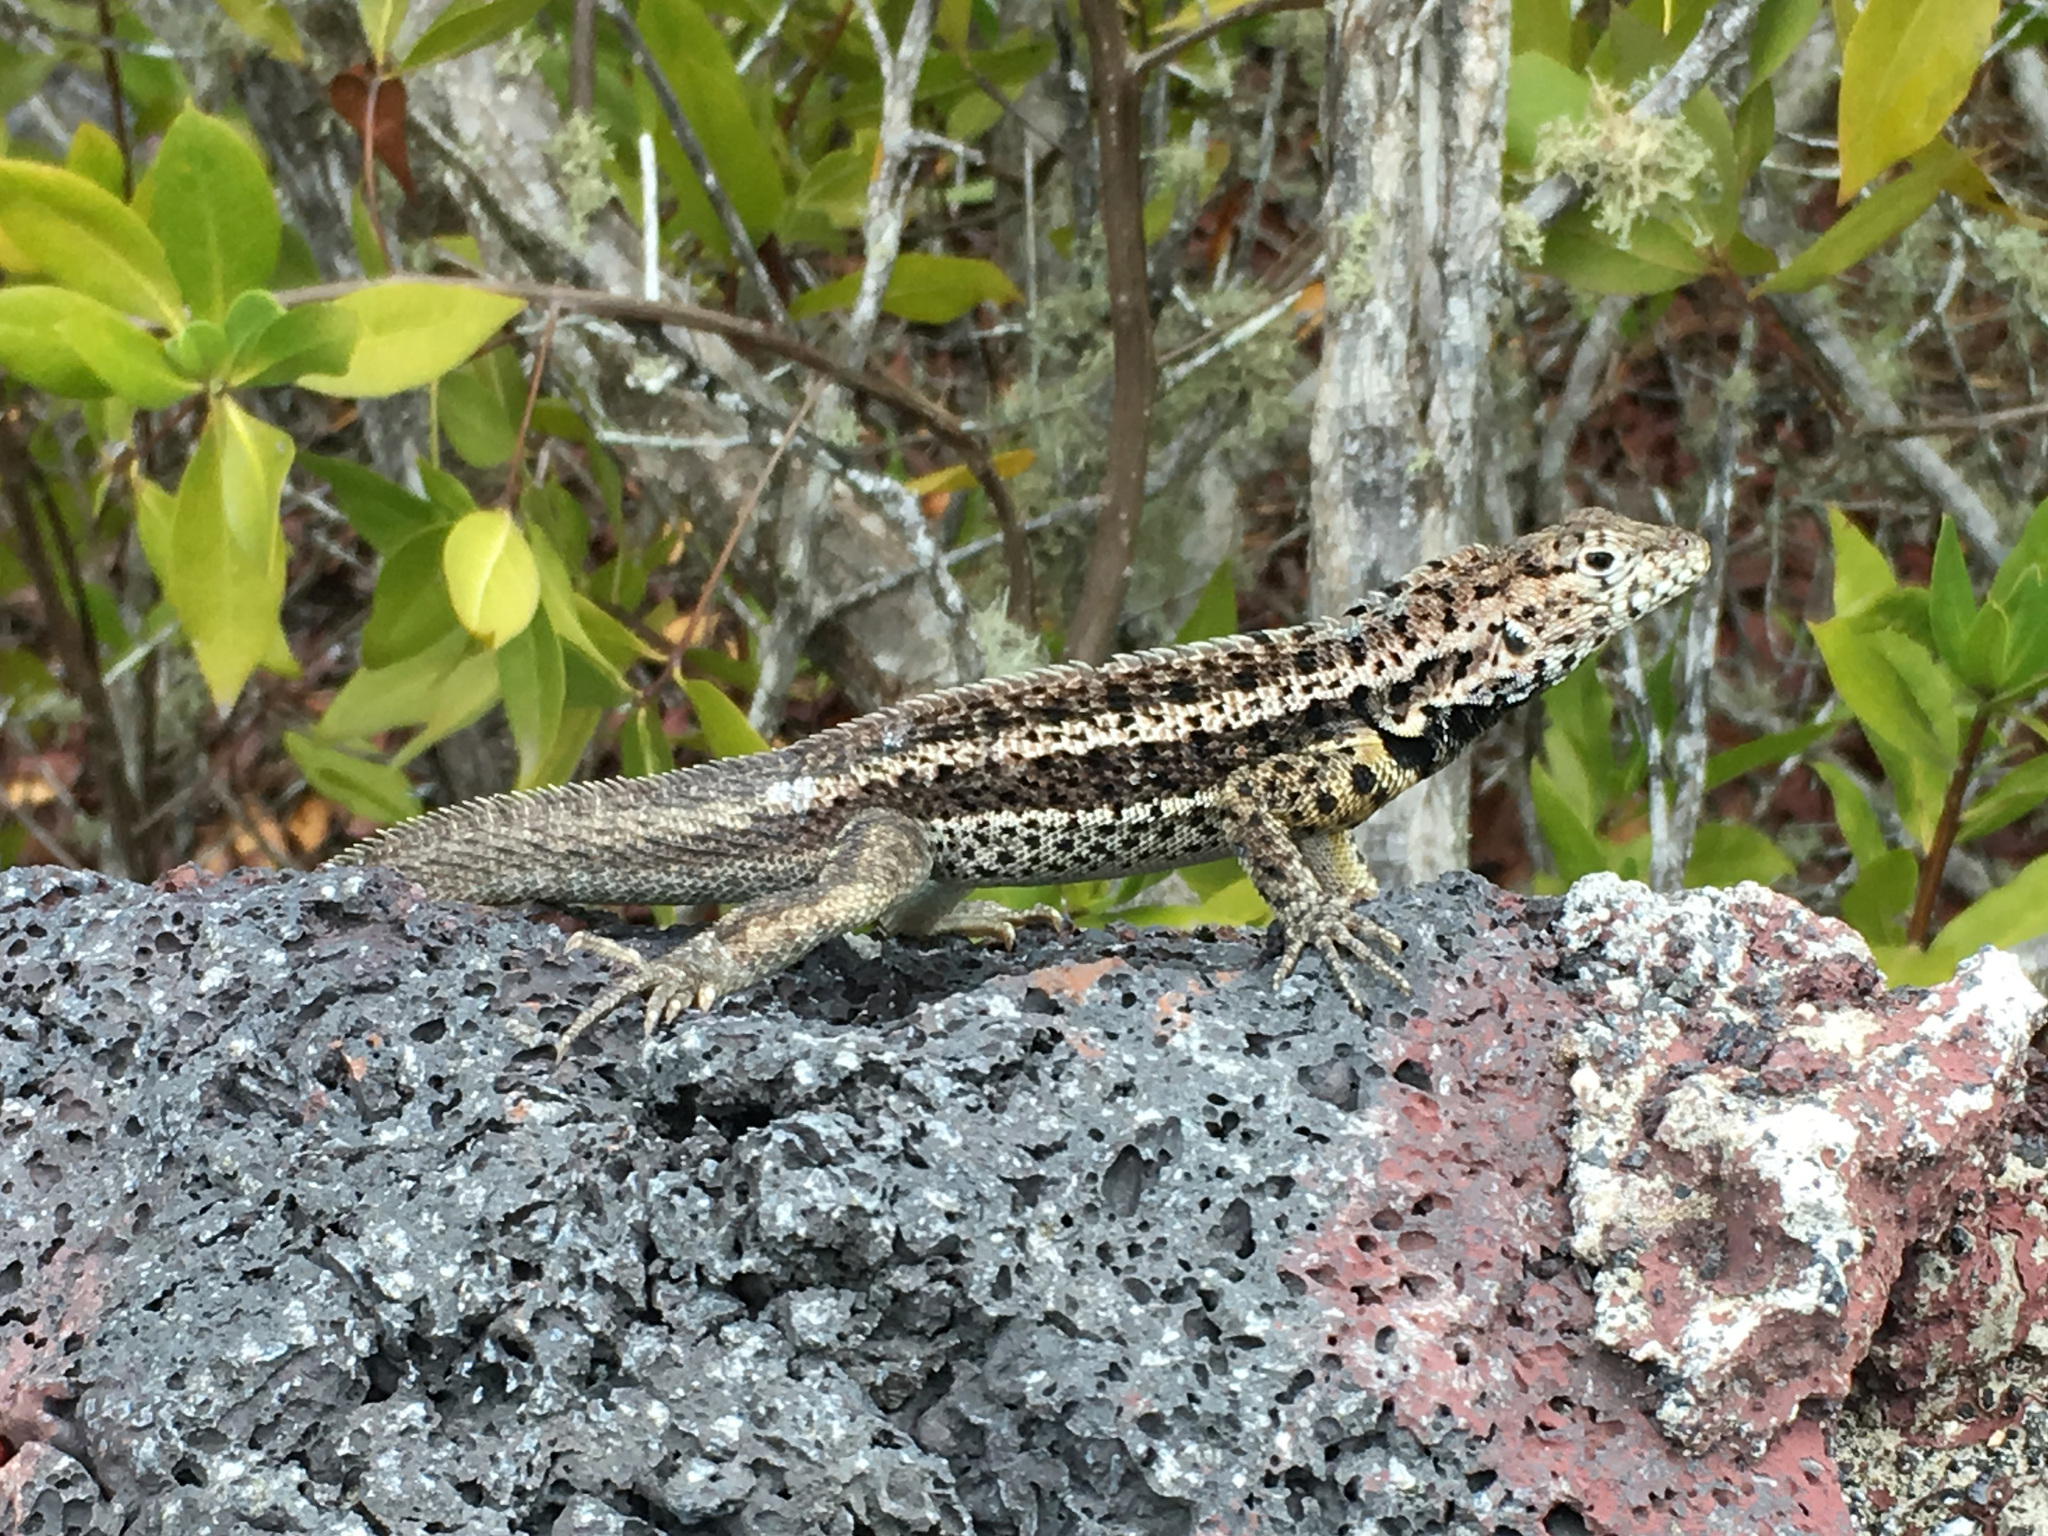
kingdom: Animalia
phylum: Chordata
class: Squamata
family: Tropiduridae
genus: Microlophus
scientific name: Microlophus albemarlensis
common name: Galapagos lava lizard
